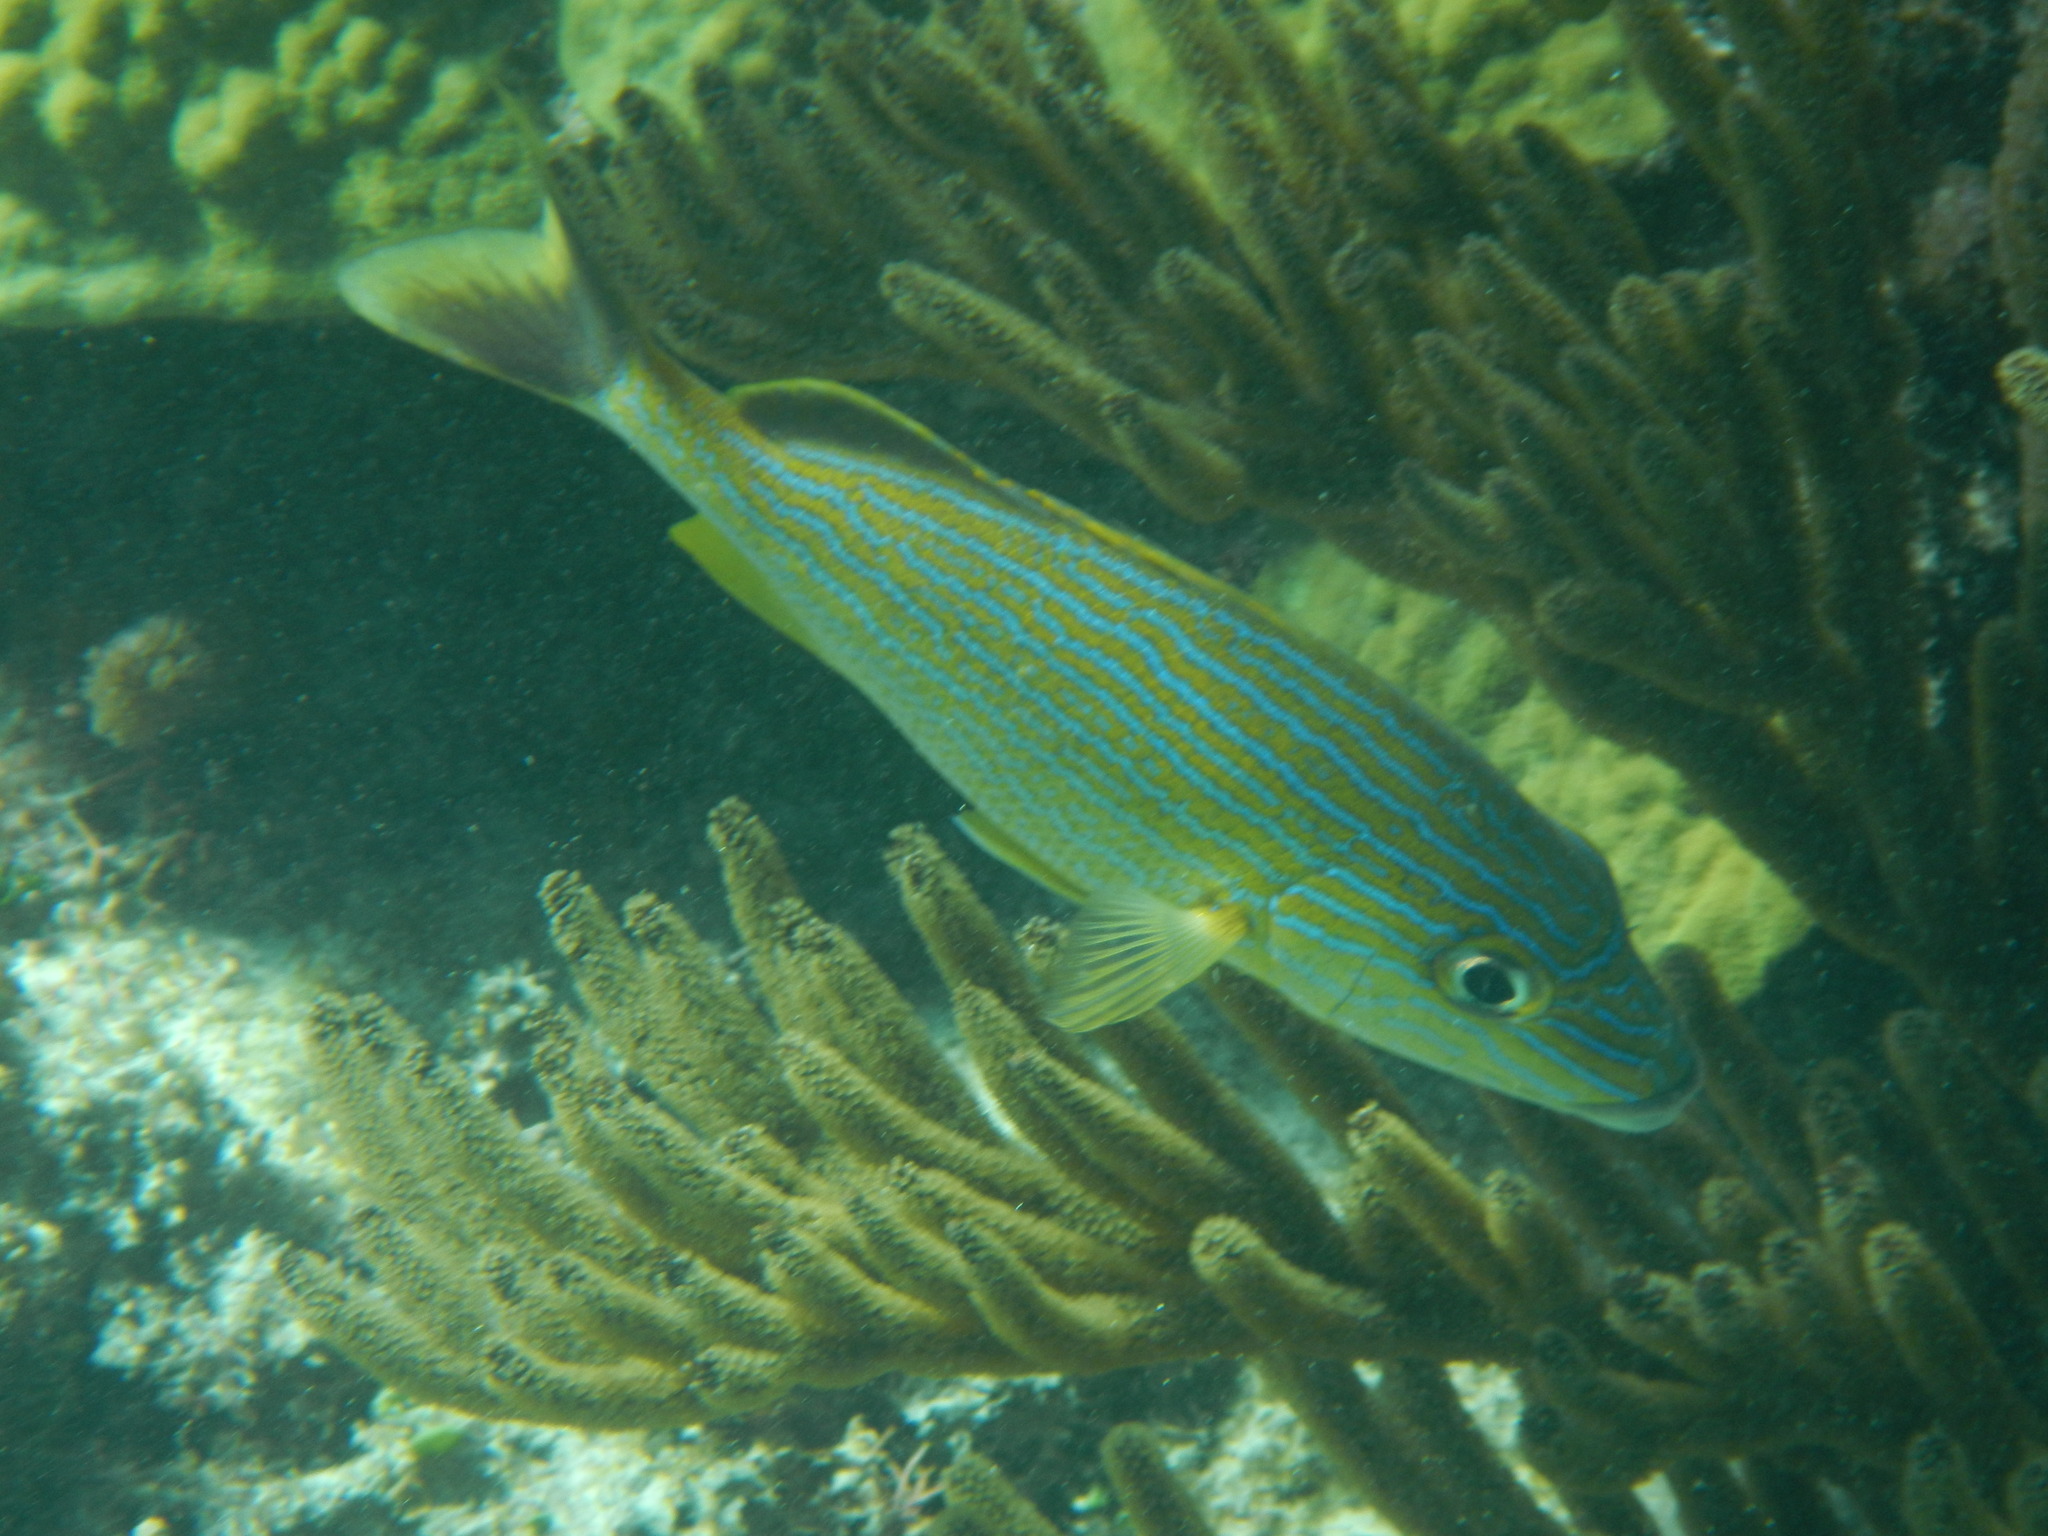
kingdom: Animalia
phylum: Chordata
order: Perciformes
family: Haemulidae
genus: Haemulon
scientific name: Haemulon sciurus
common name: Bluestriped grunt
